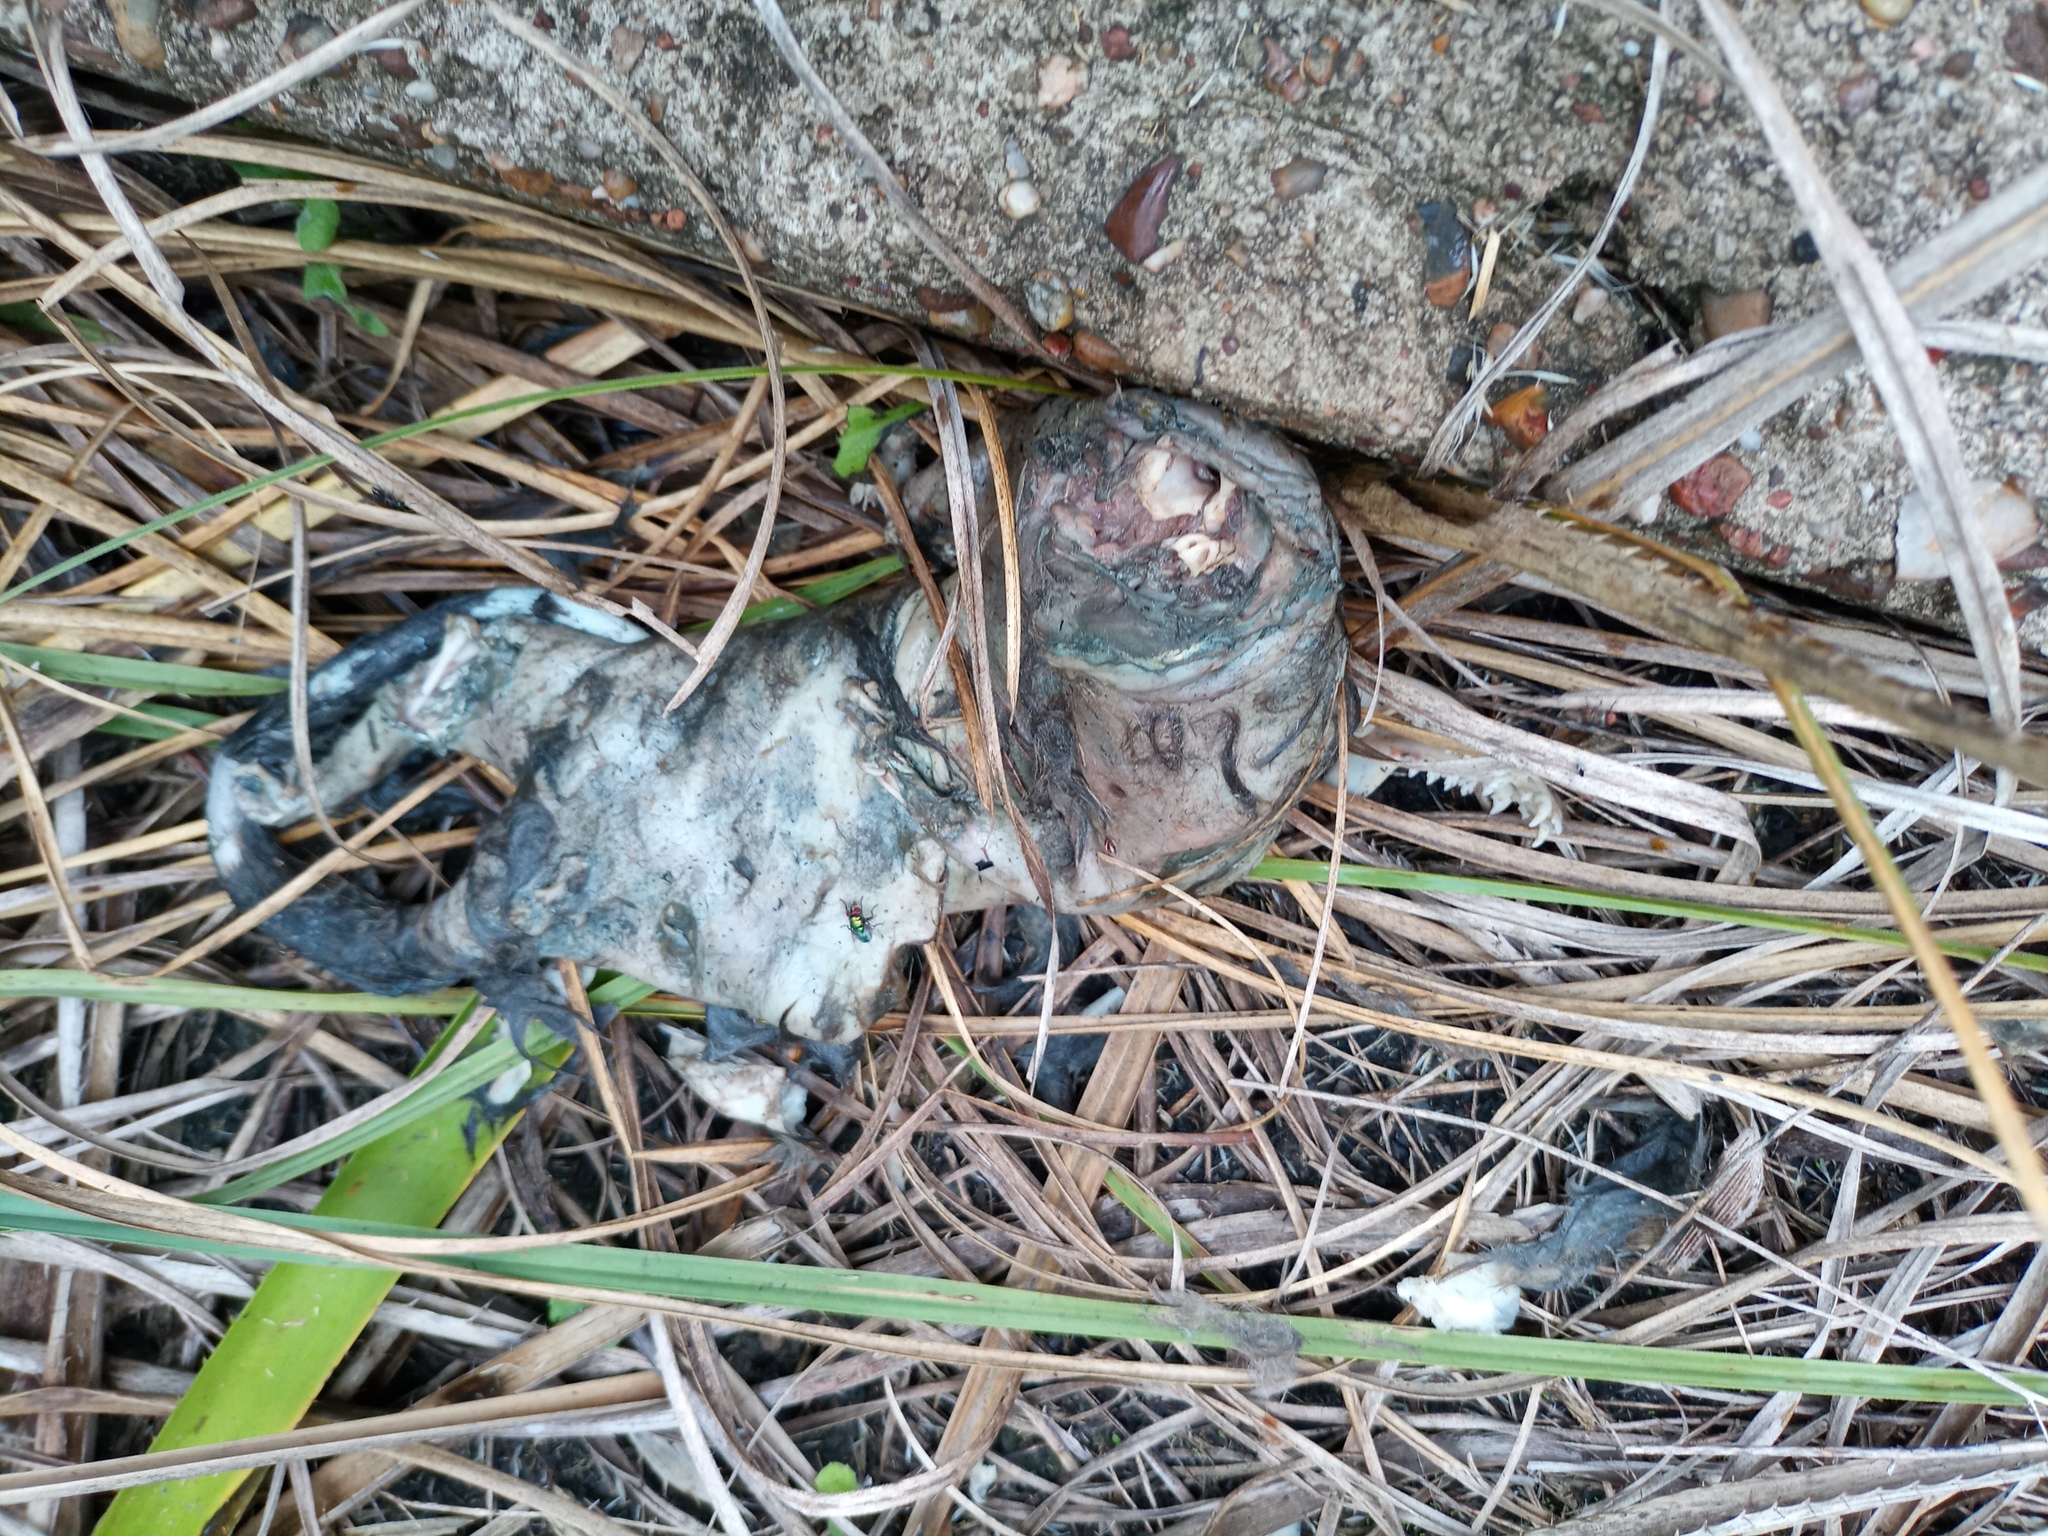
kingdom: Animalia
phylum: Chordata
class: Mammalia
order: Didelphimorphia
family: Didelphidae
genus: Didelphis
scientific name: Didelphis albiventris
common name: White-eared opossum
